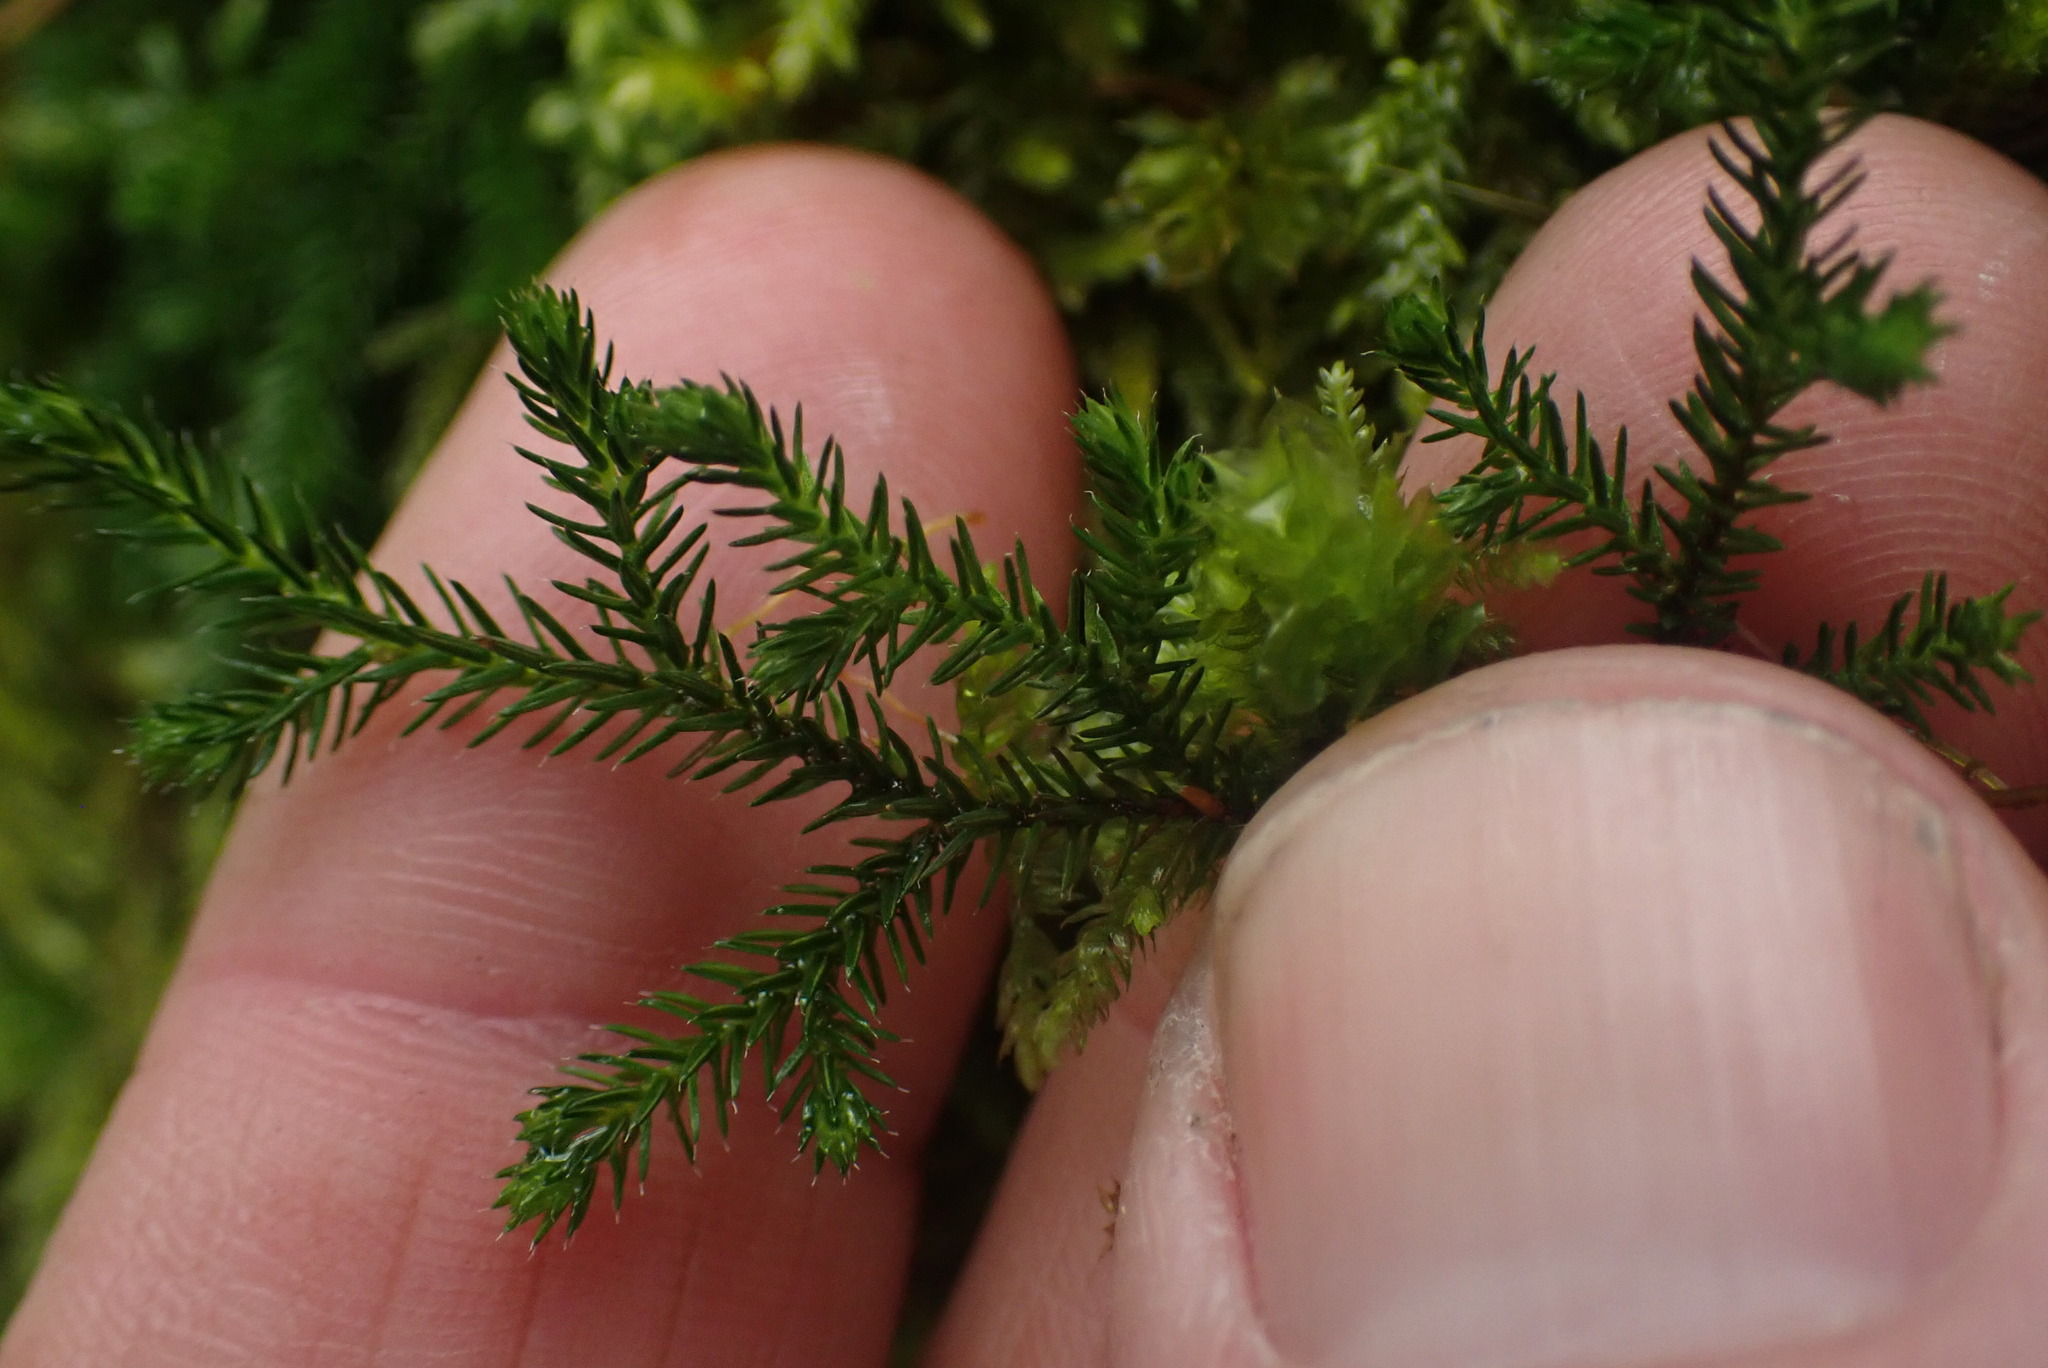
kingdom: Plantae
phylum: Tracheophyta
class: Lycopodiopsida
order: Selaginellales
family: Selaginellaceae
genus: Selaginella
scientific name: Selaginella wallacei
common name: Wallace's selaginella
